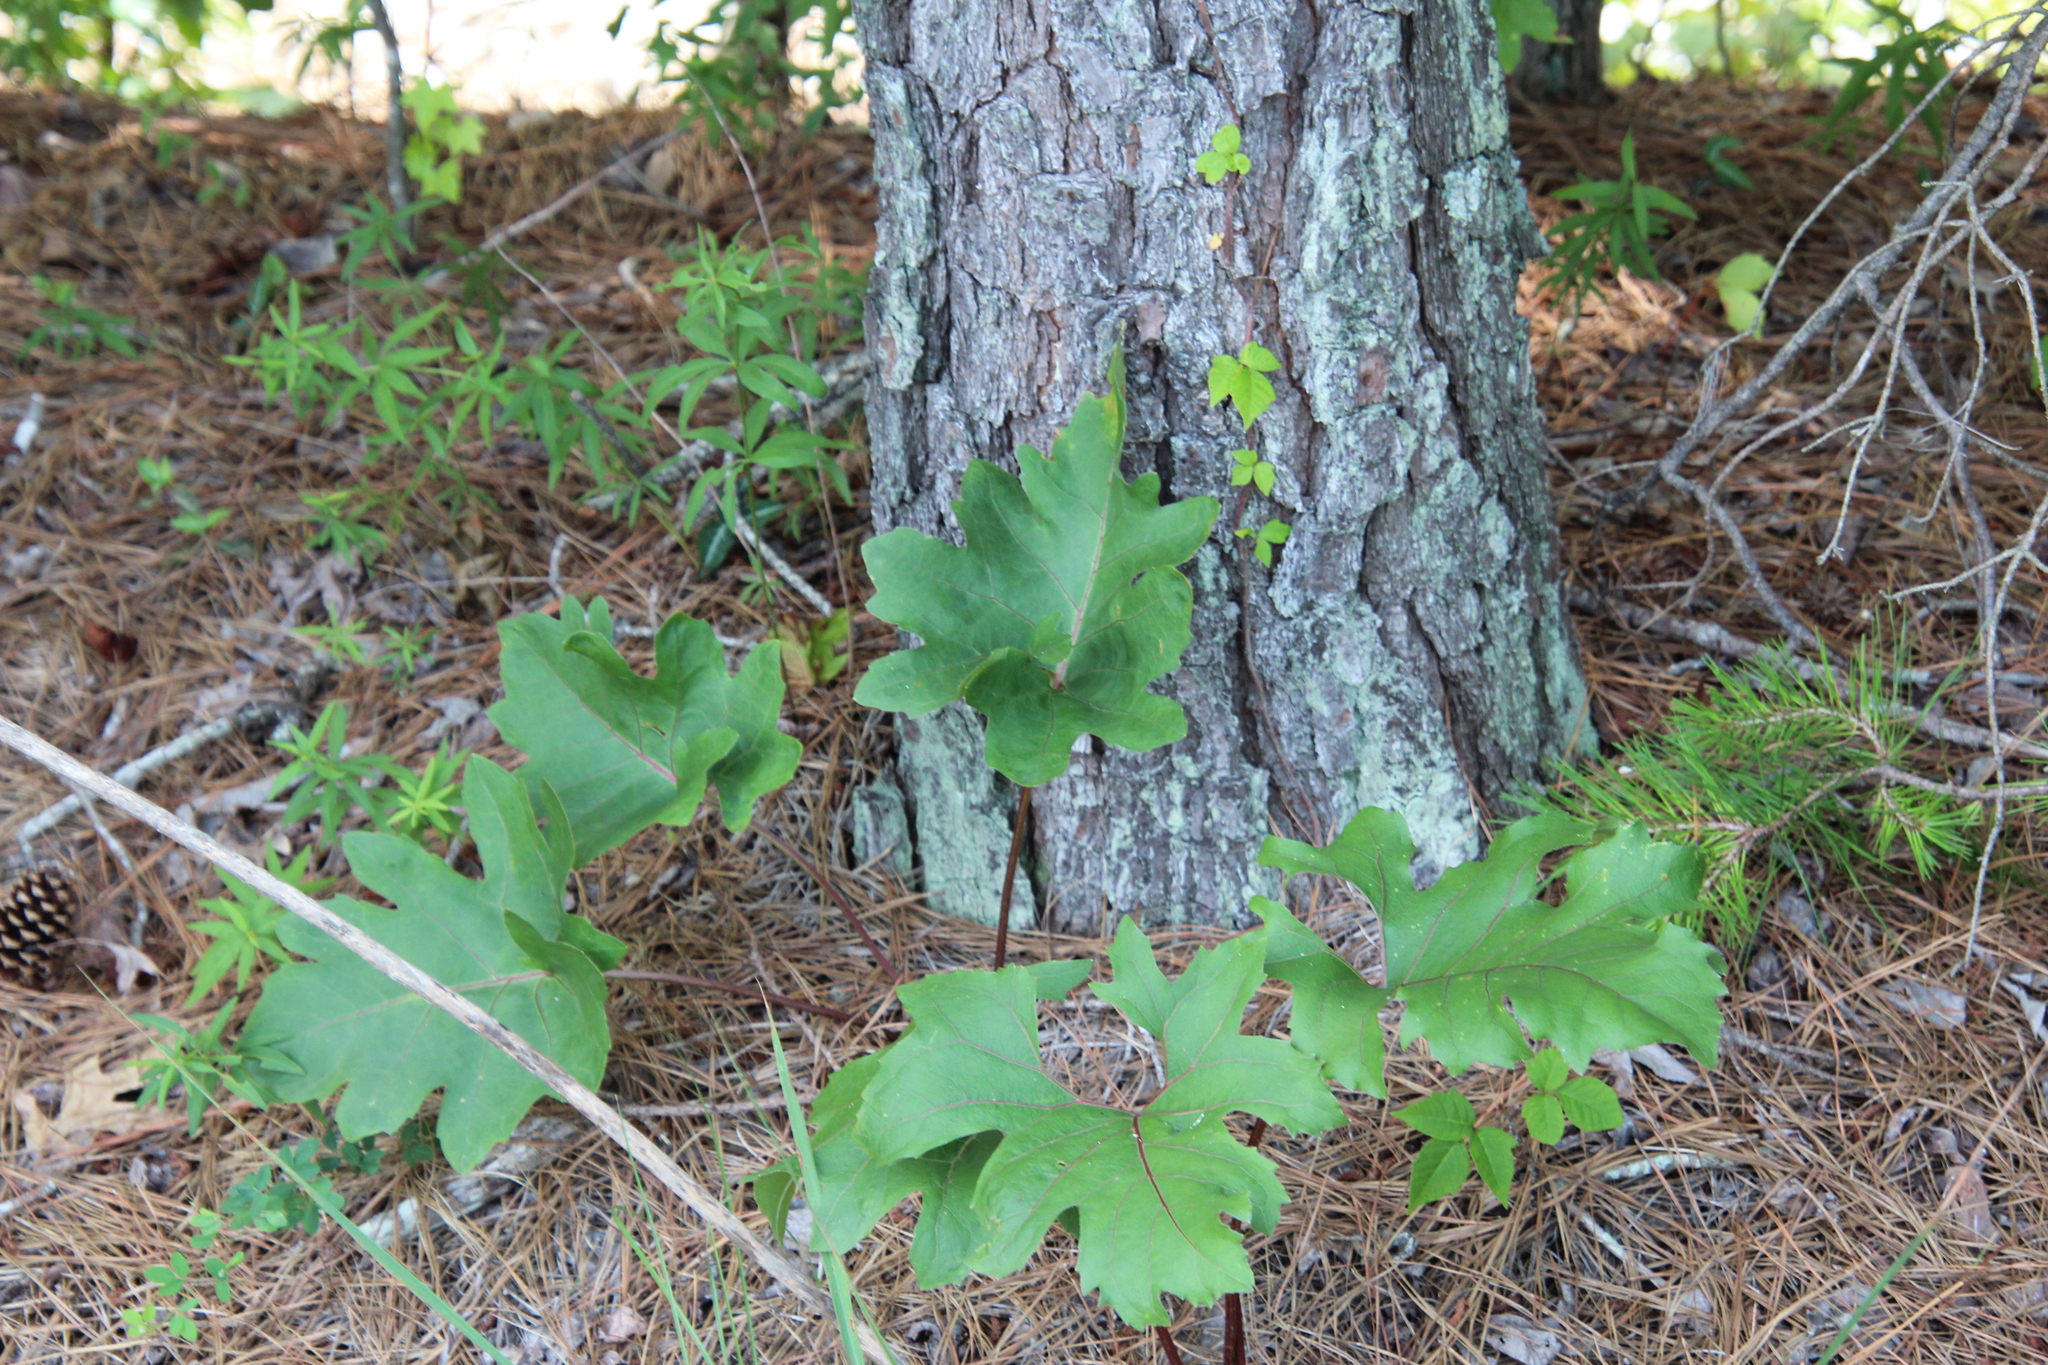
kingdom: Plantae
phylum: Tracheophyta
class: Magnoliopsida
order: Asterales
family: Asteraceae
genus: Silphium
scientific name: Silphium compositum
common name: Lesser basal-leaf rosinweed
